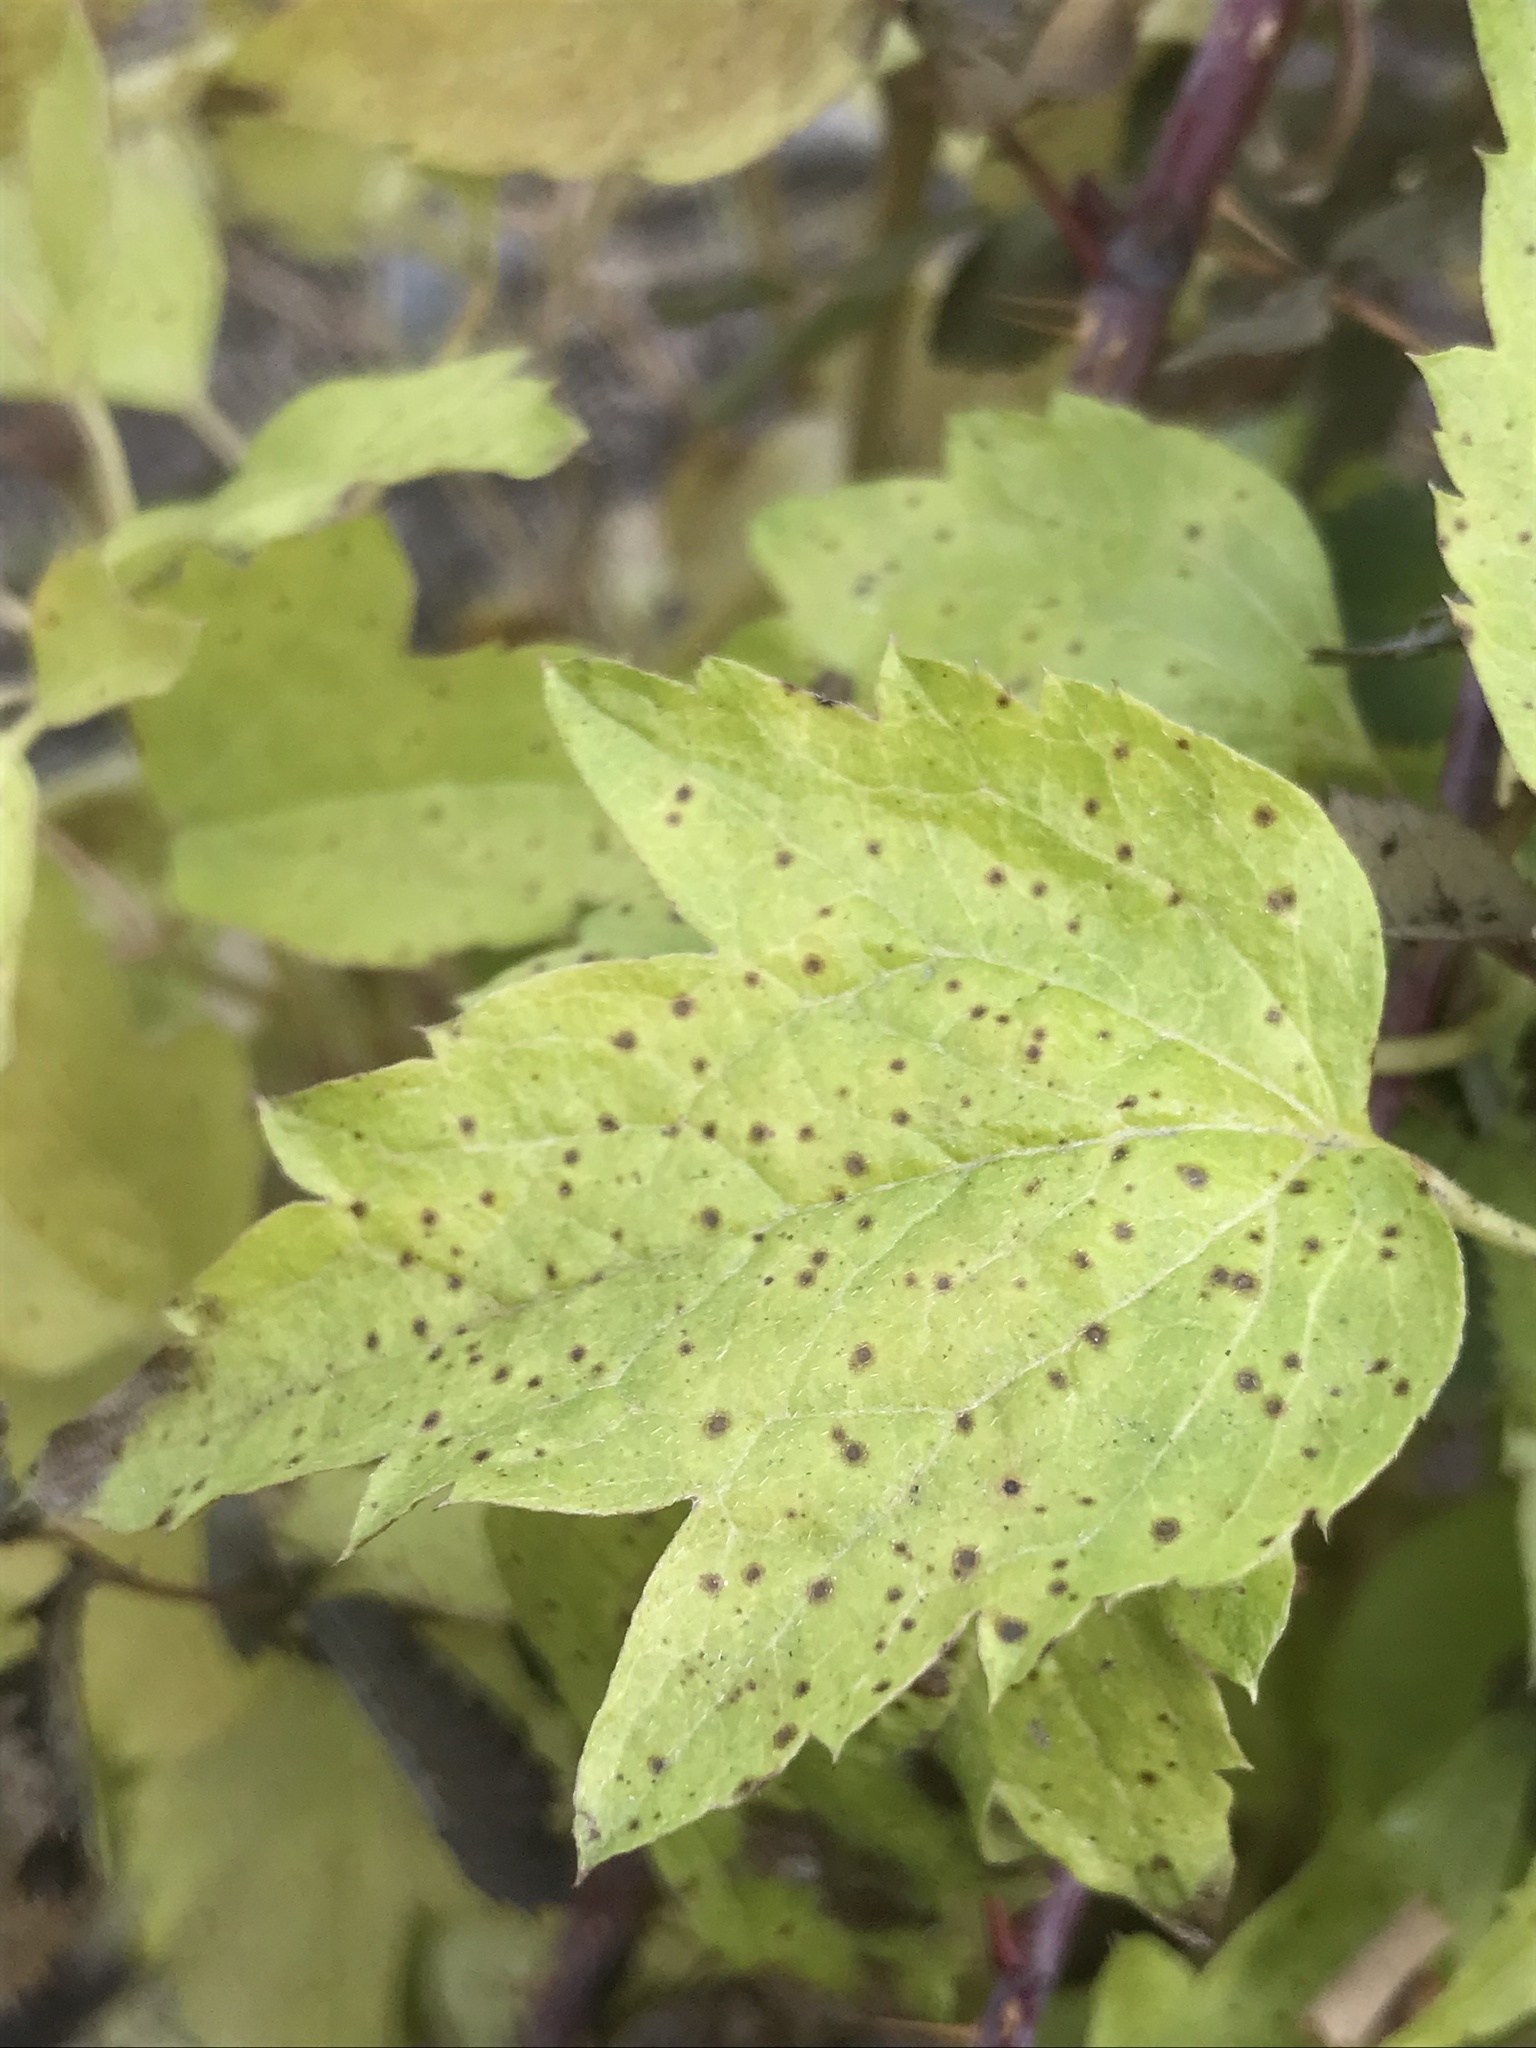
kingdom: Plantae
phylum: Tracheophyta
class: Magnoliopsida
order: Ranunculales
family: Ranunculaceae
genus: Clematis
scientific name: Clematis ligusticifolia
